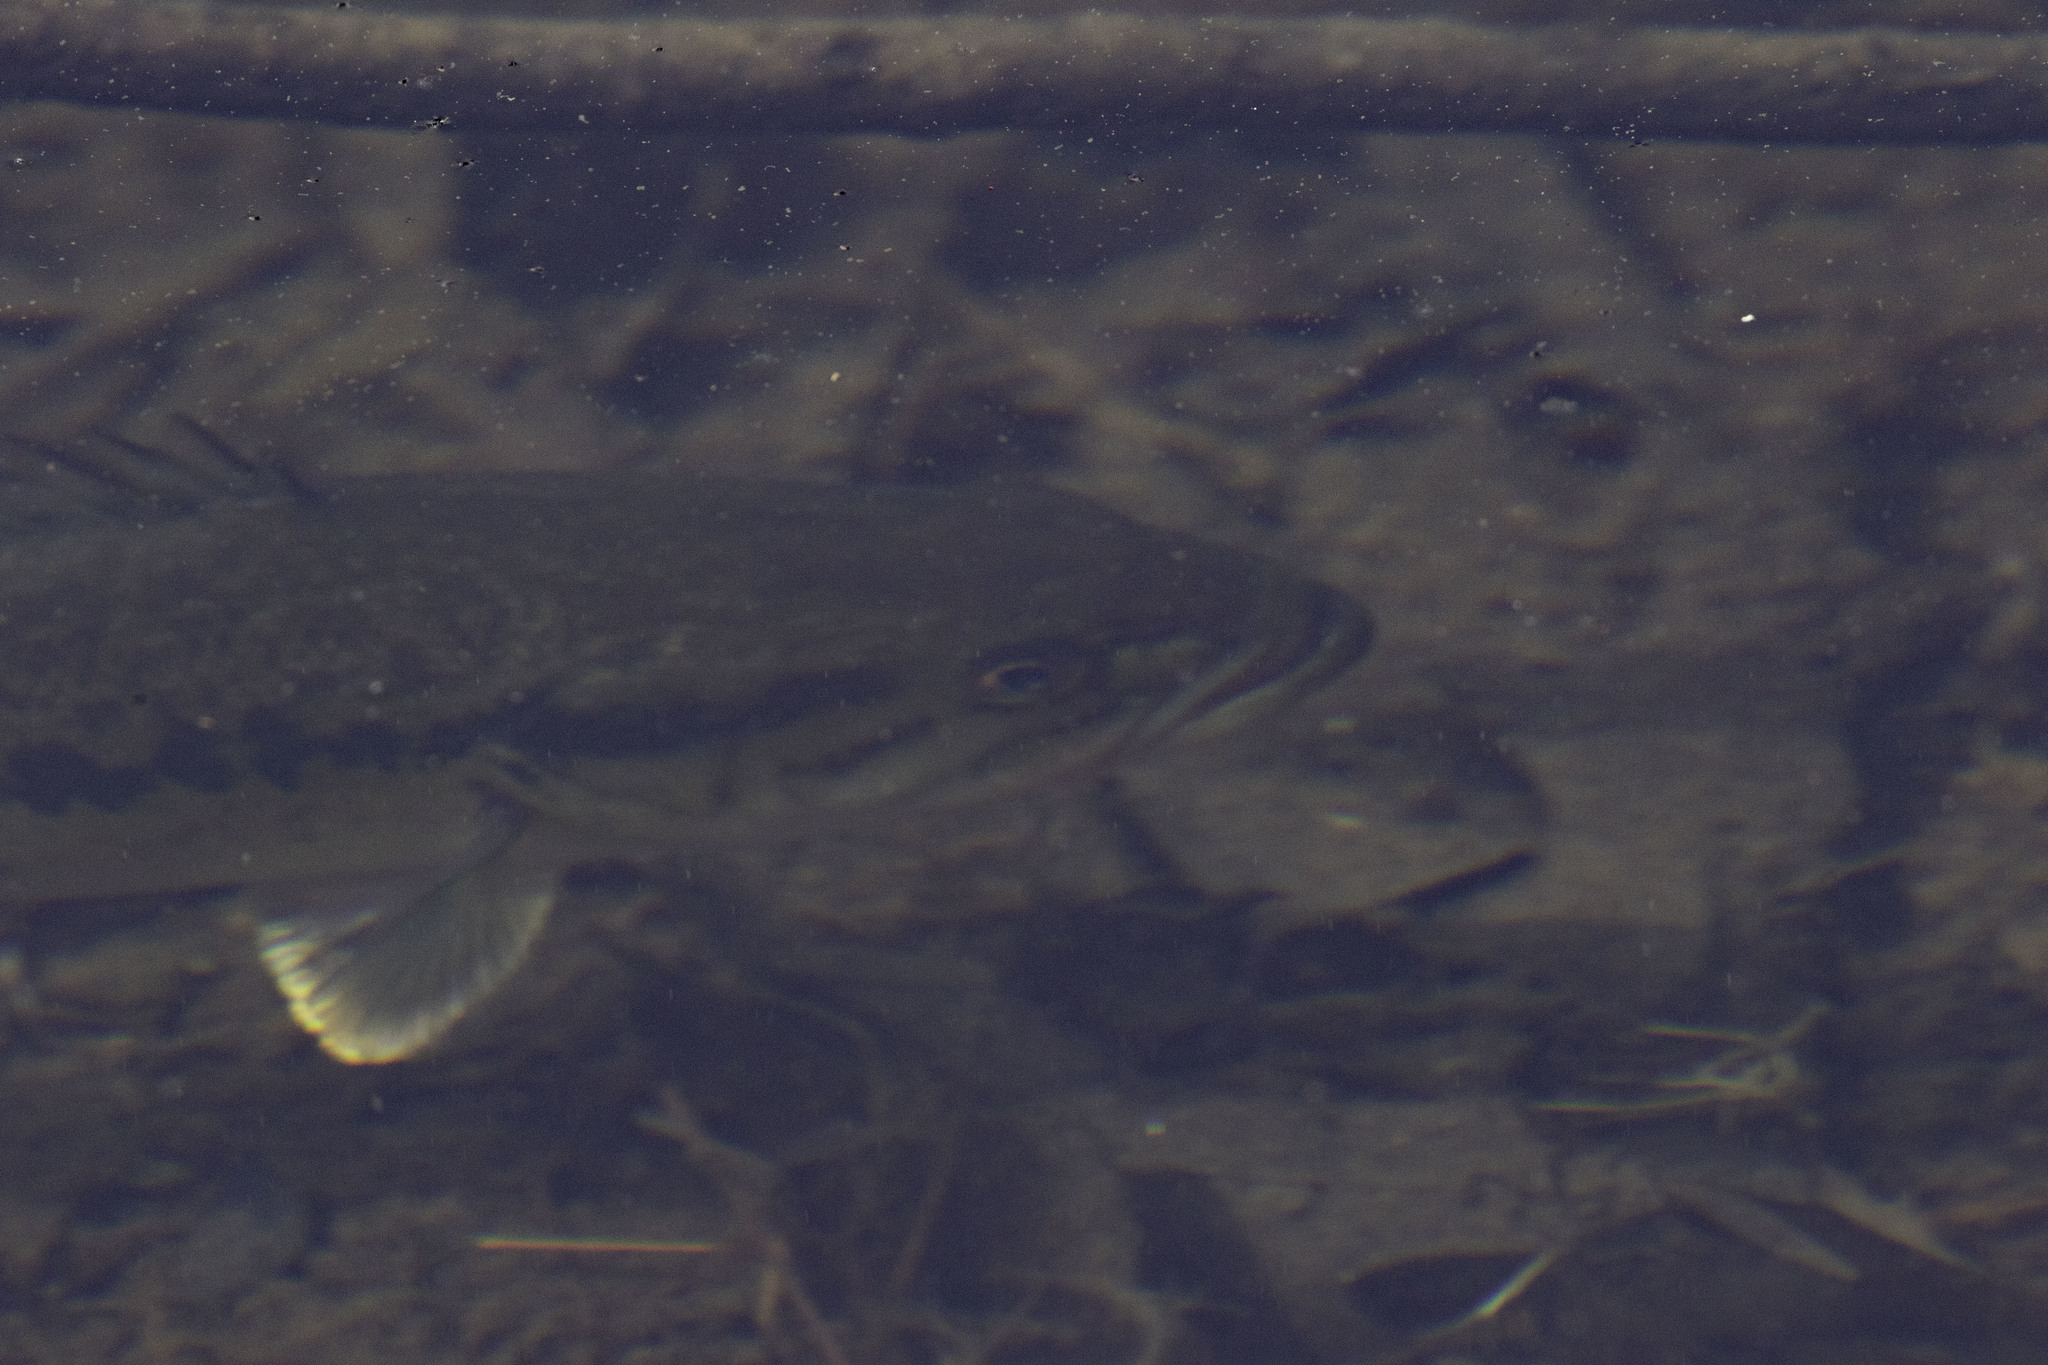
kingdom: Animalia
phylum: Chordata
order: Perciformes
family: Centrarchidae
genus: Micropterus
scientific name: Micropterus
